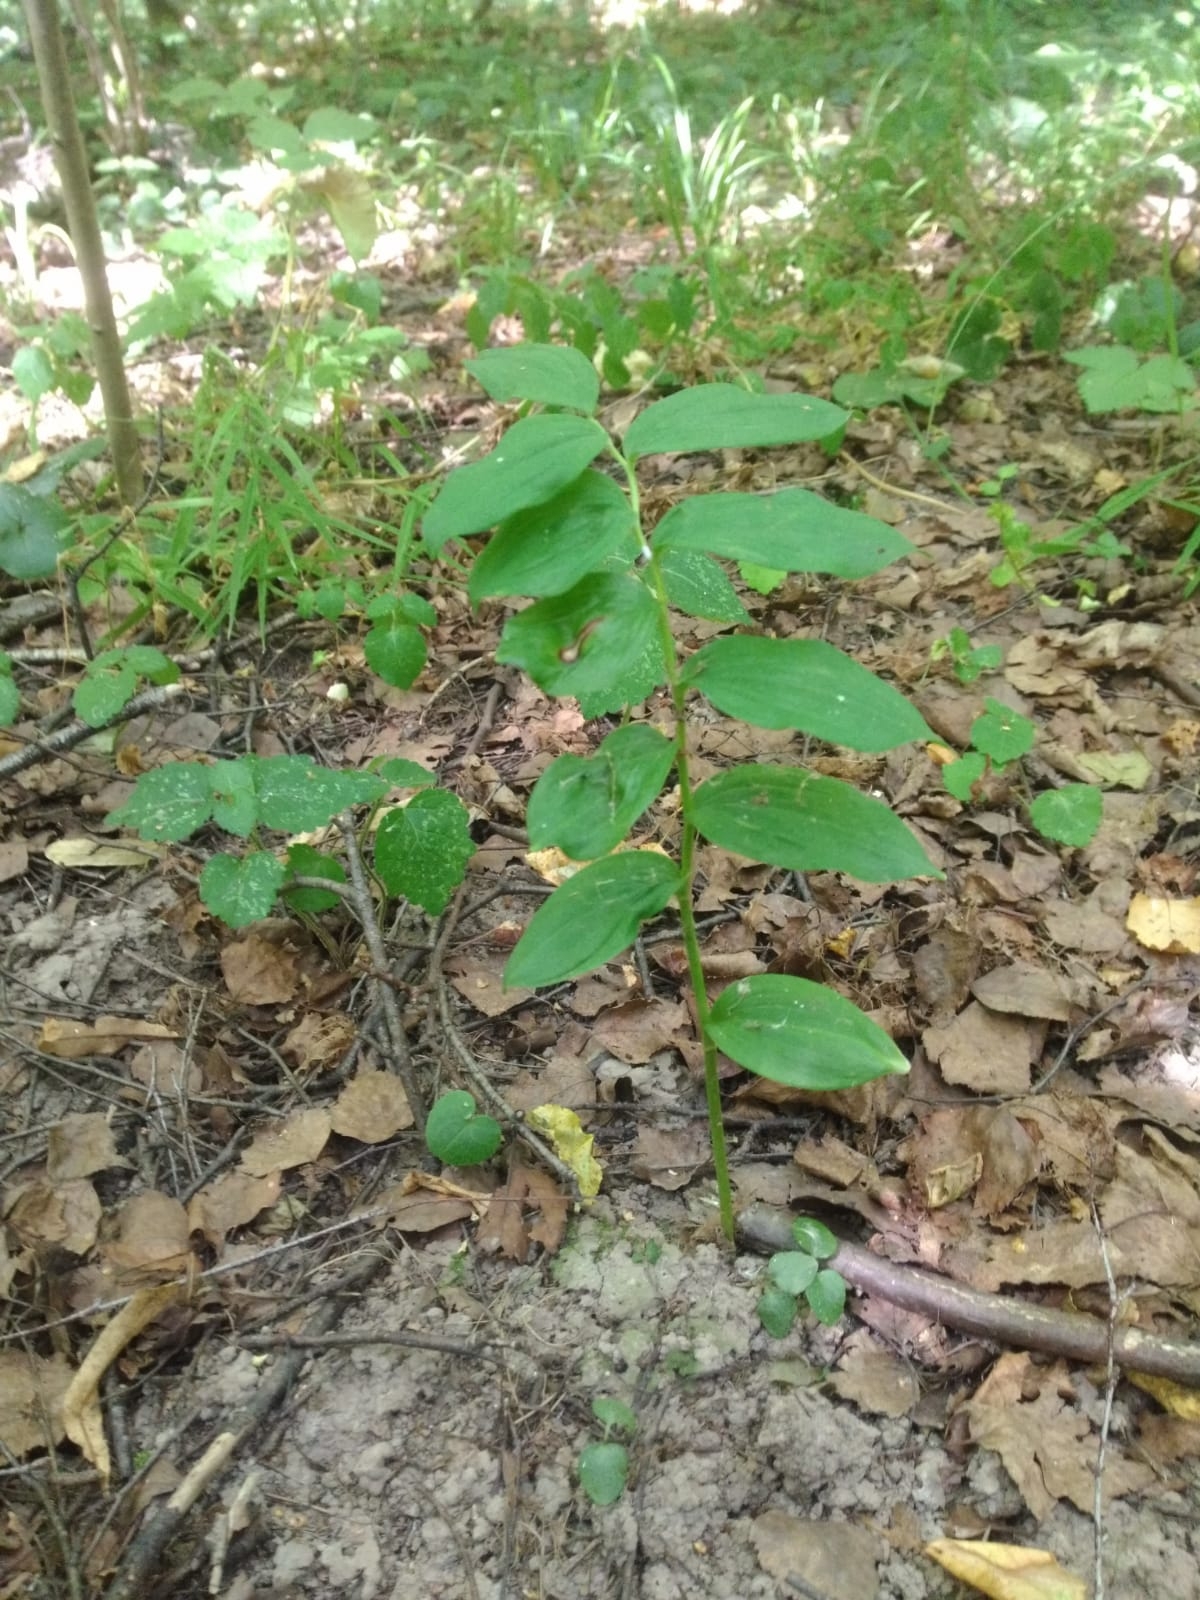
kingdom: Plantae
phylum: Tracheophyta
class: Liliopsida
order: Asparagales
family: Asparagaceae
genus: Polygonatum
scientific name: Polygonatum multiflorum
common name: Solomon's-seal
